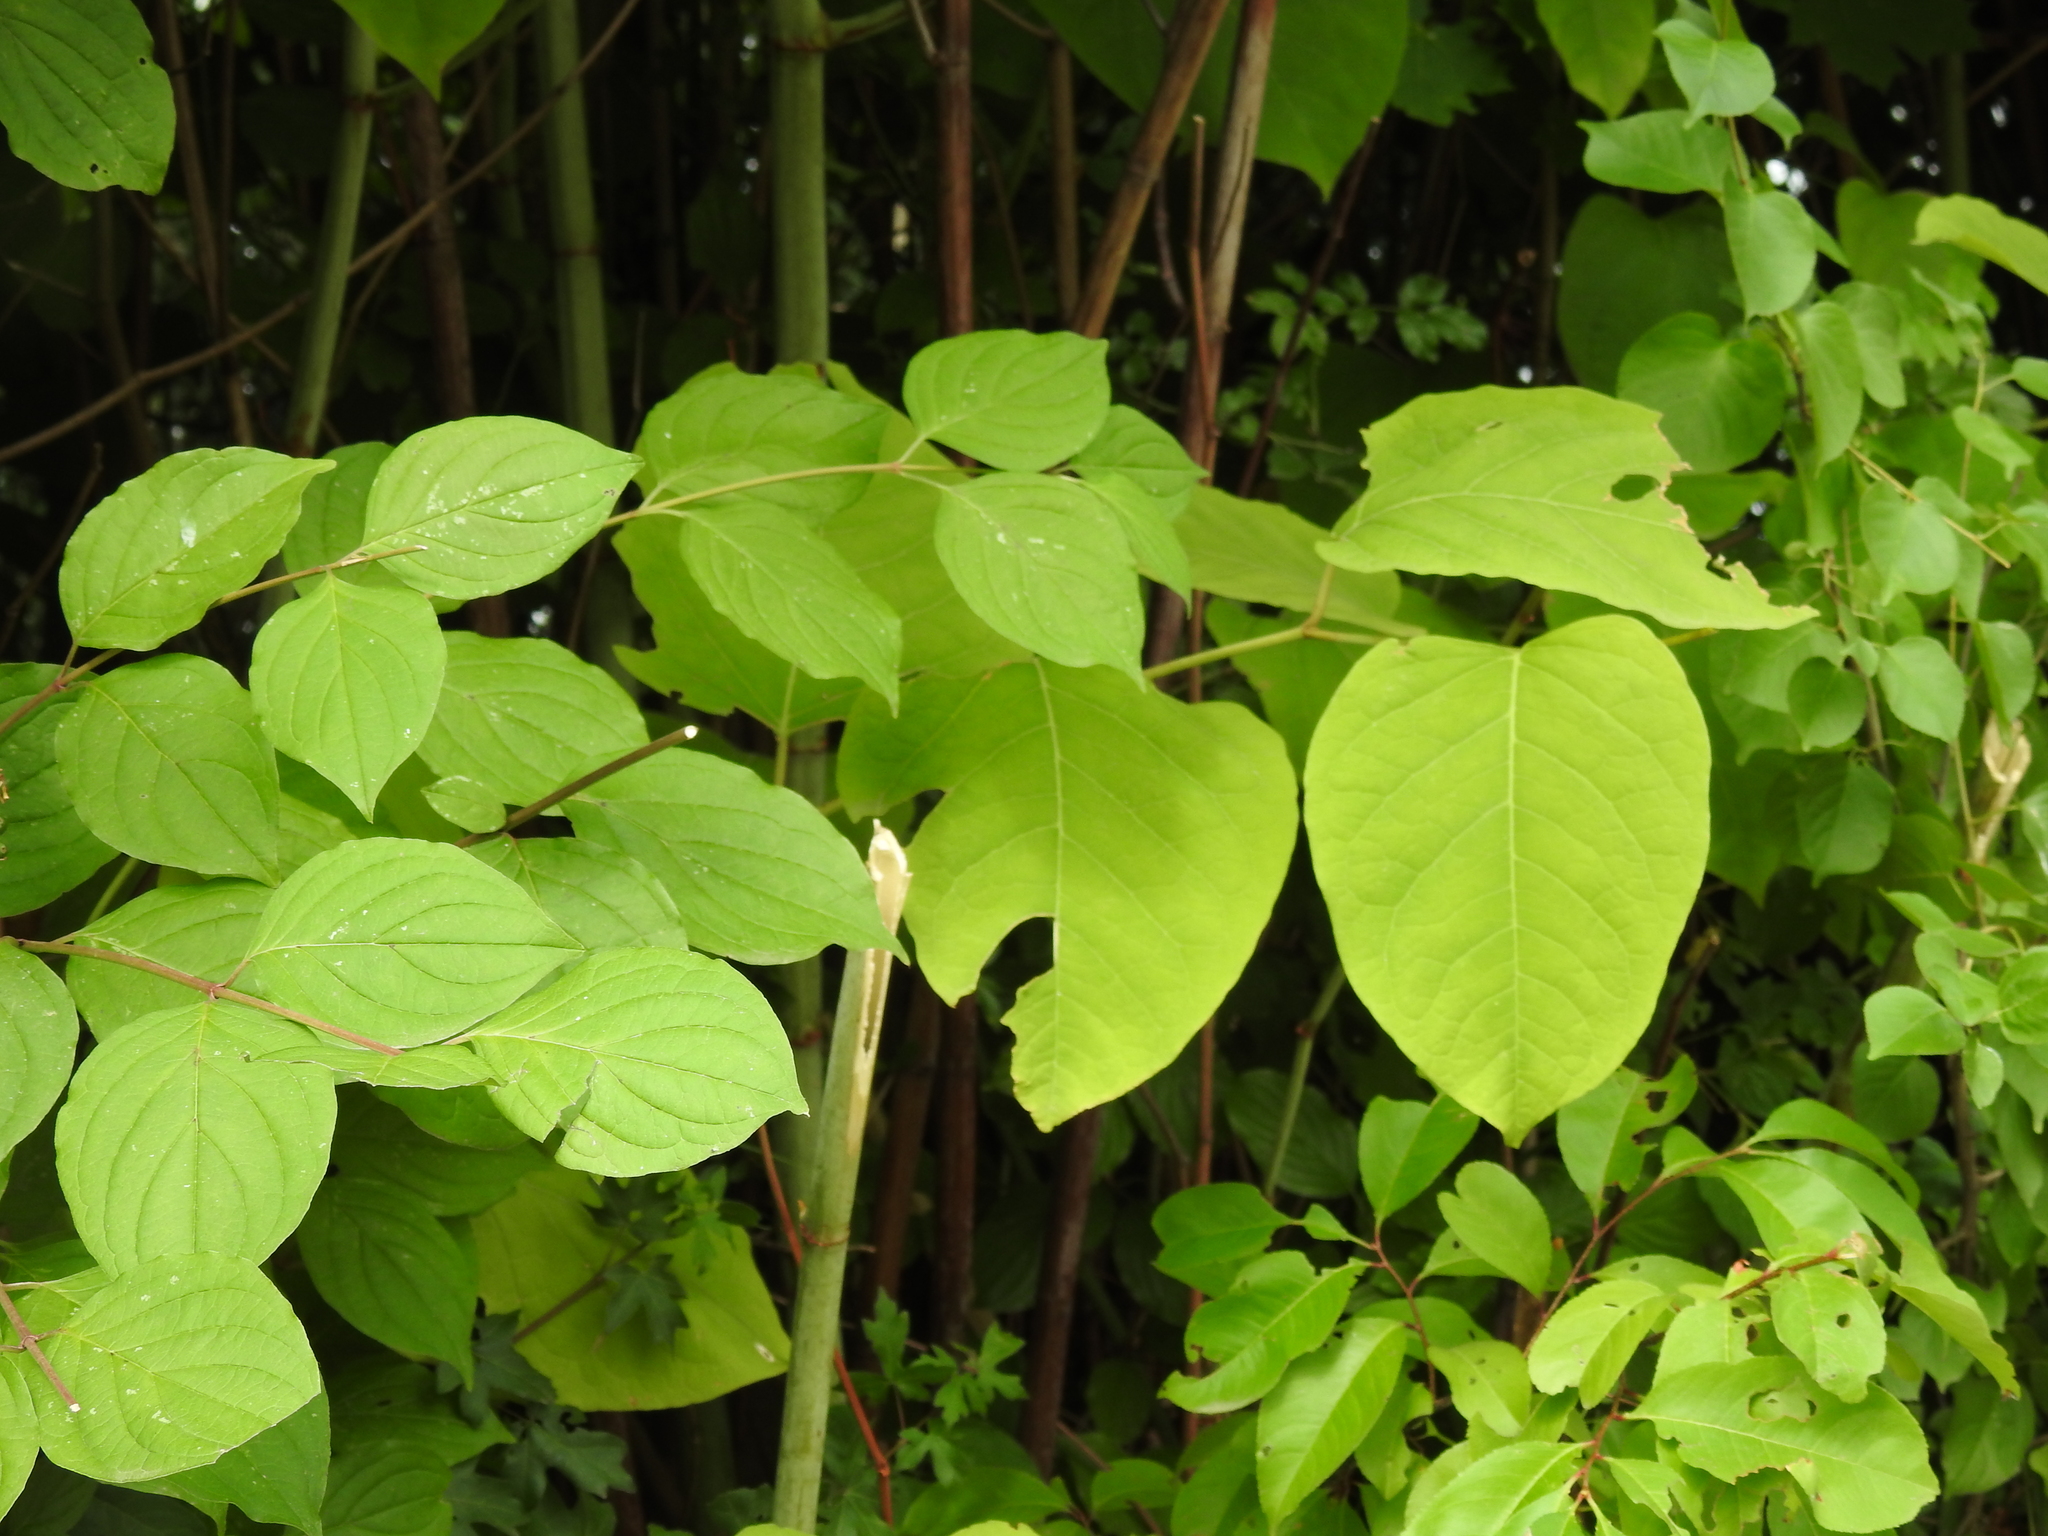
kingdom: Plantae
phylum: Tracheophyta
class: Magnoliopsida
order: Caryophyllales
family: Polygonaceae
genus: Reynoutria
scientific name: Reynoutria japonica
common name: Japanese knotweed
